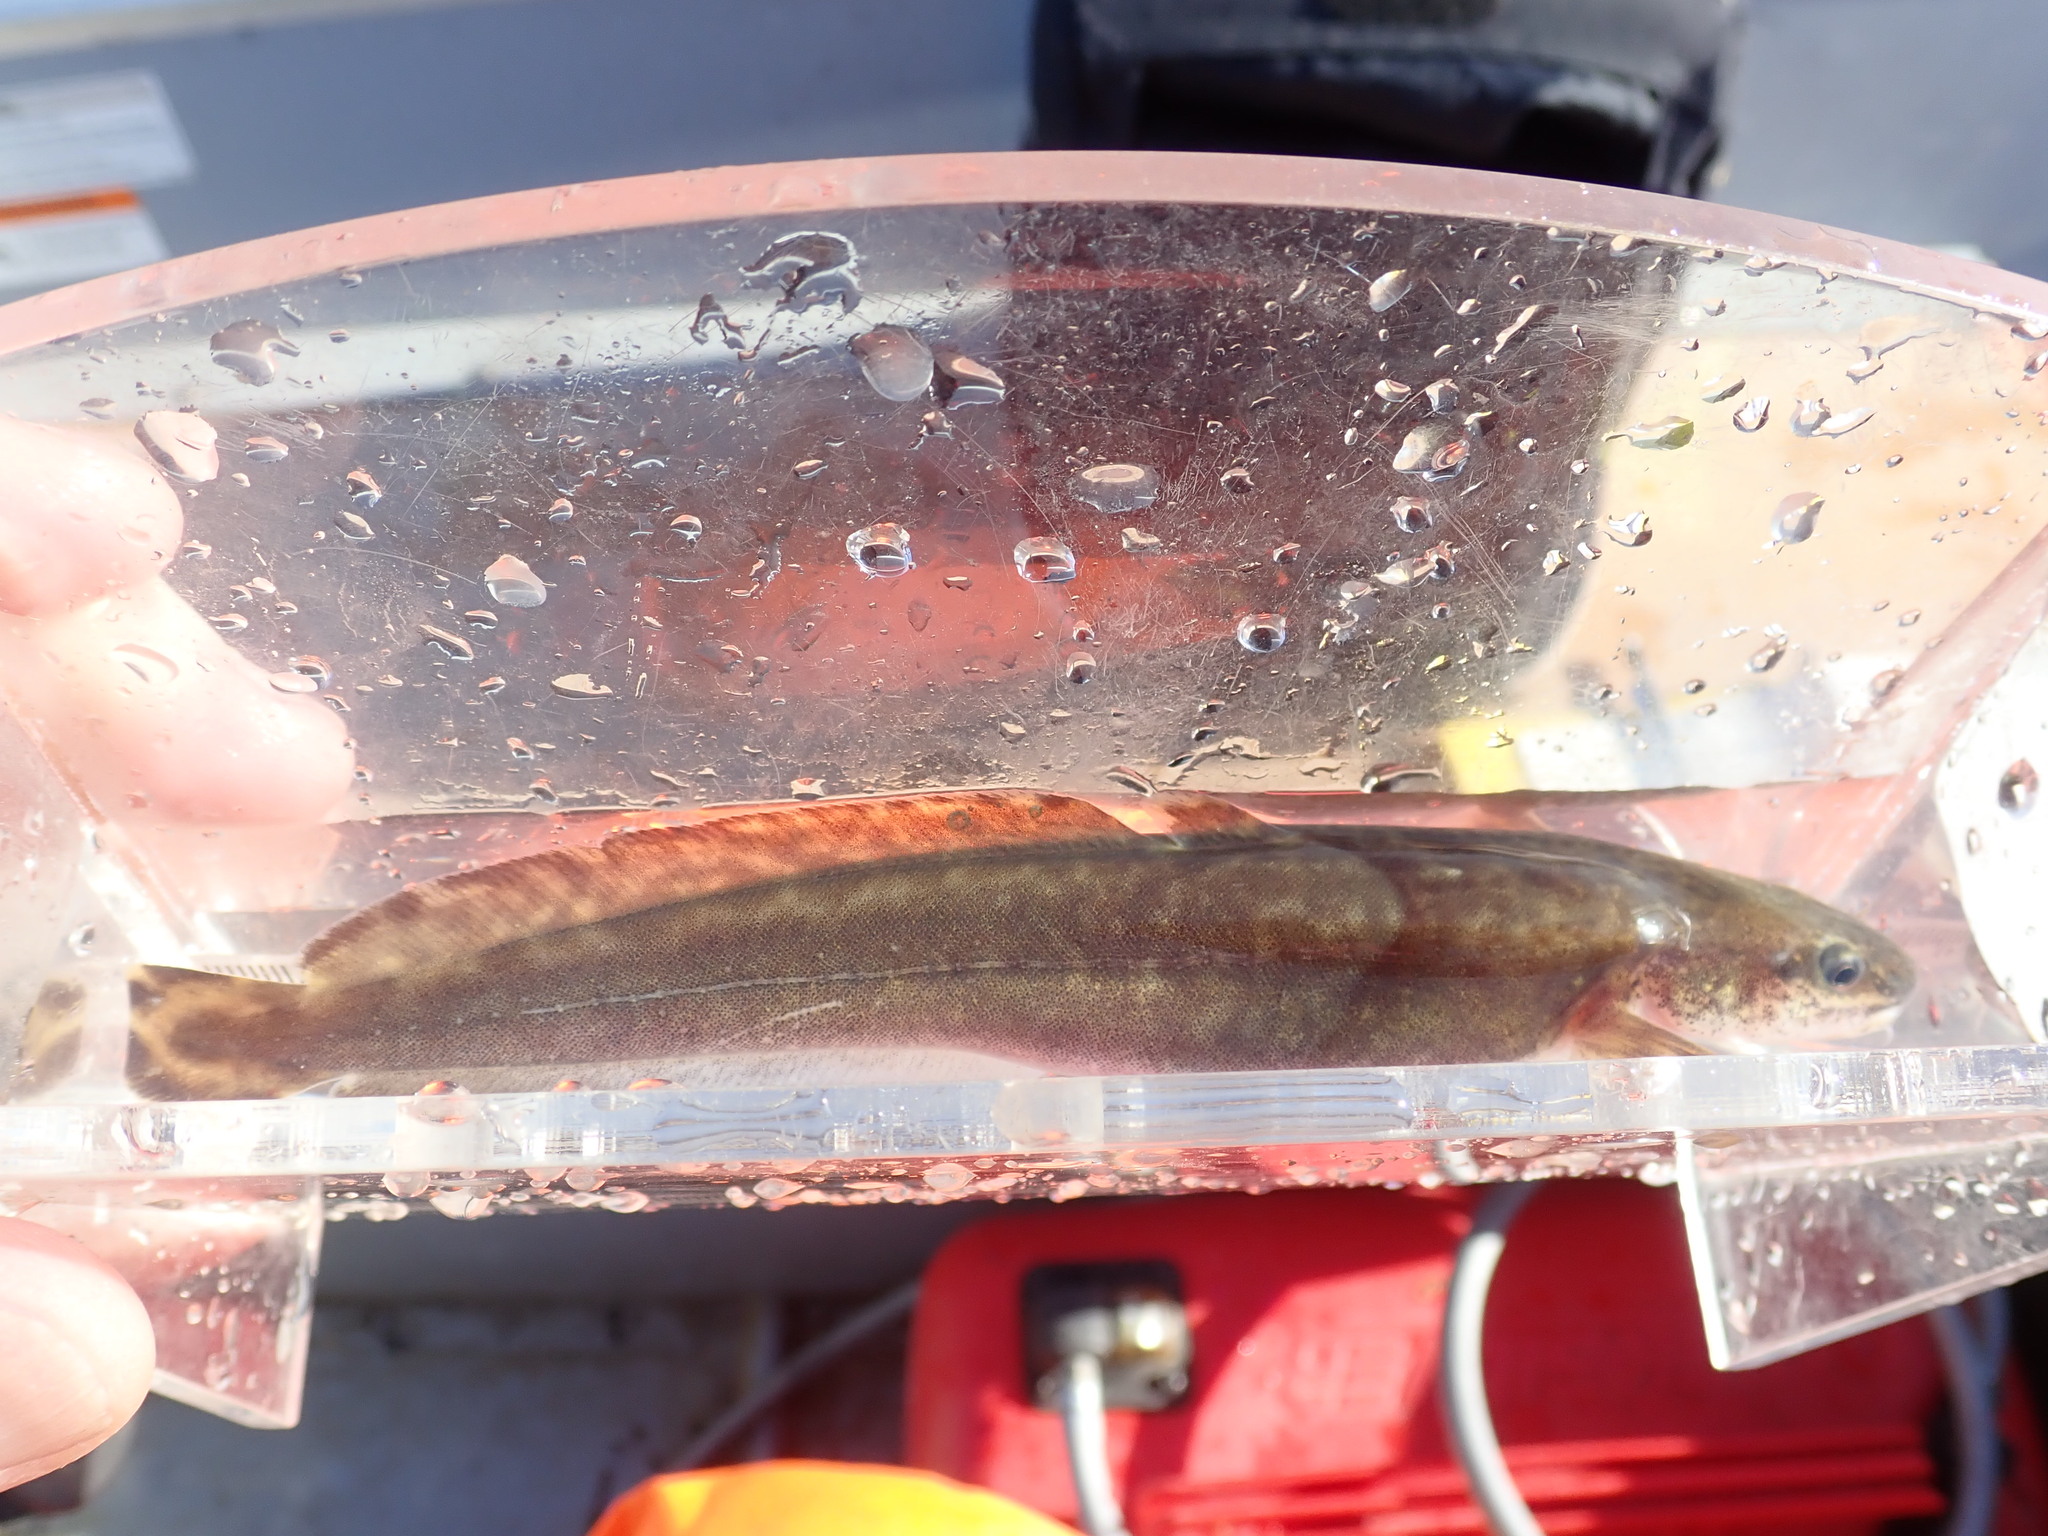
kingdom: Animalia
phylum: Chordata
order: Gadiformes
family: Lotidae
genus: Lota
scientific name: Lota lota
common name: Burbot
